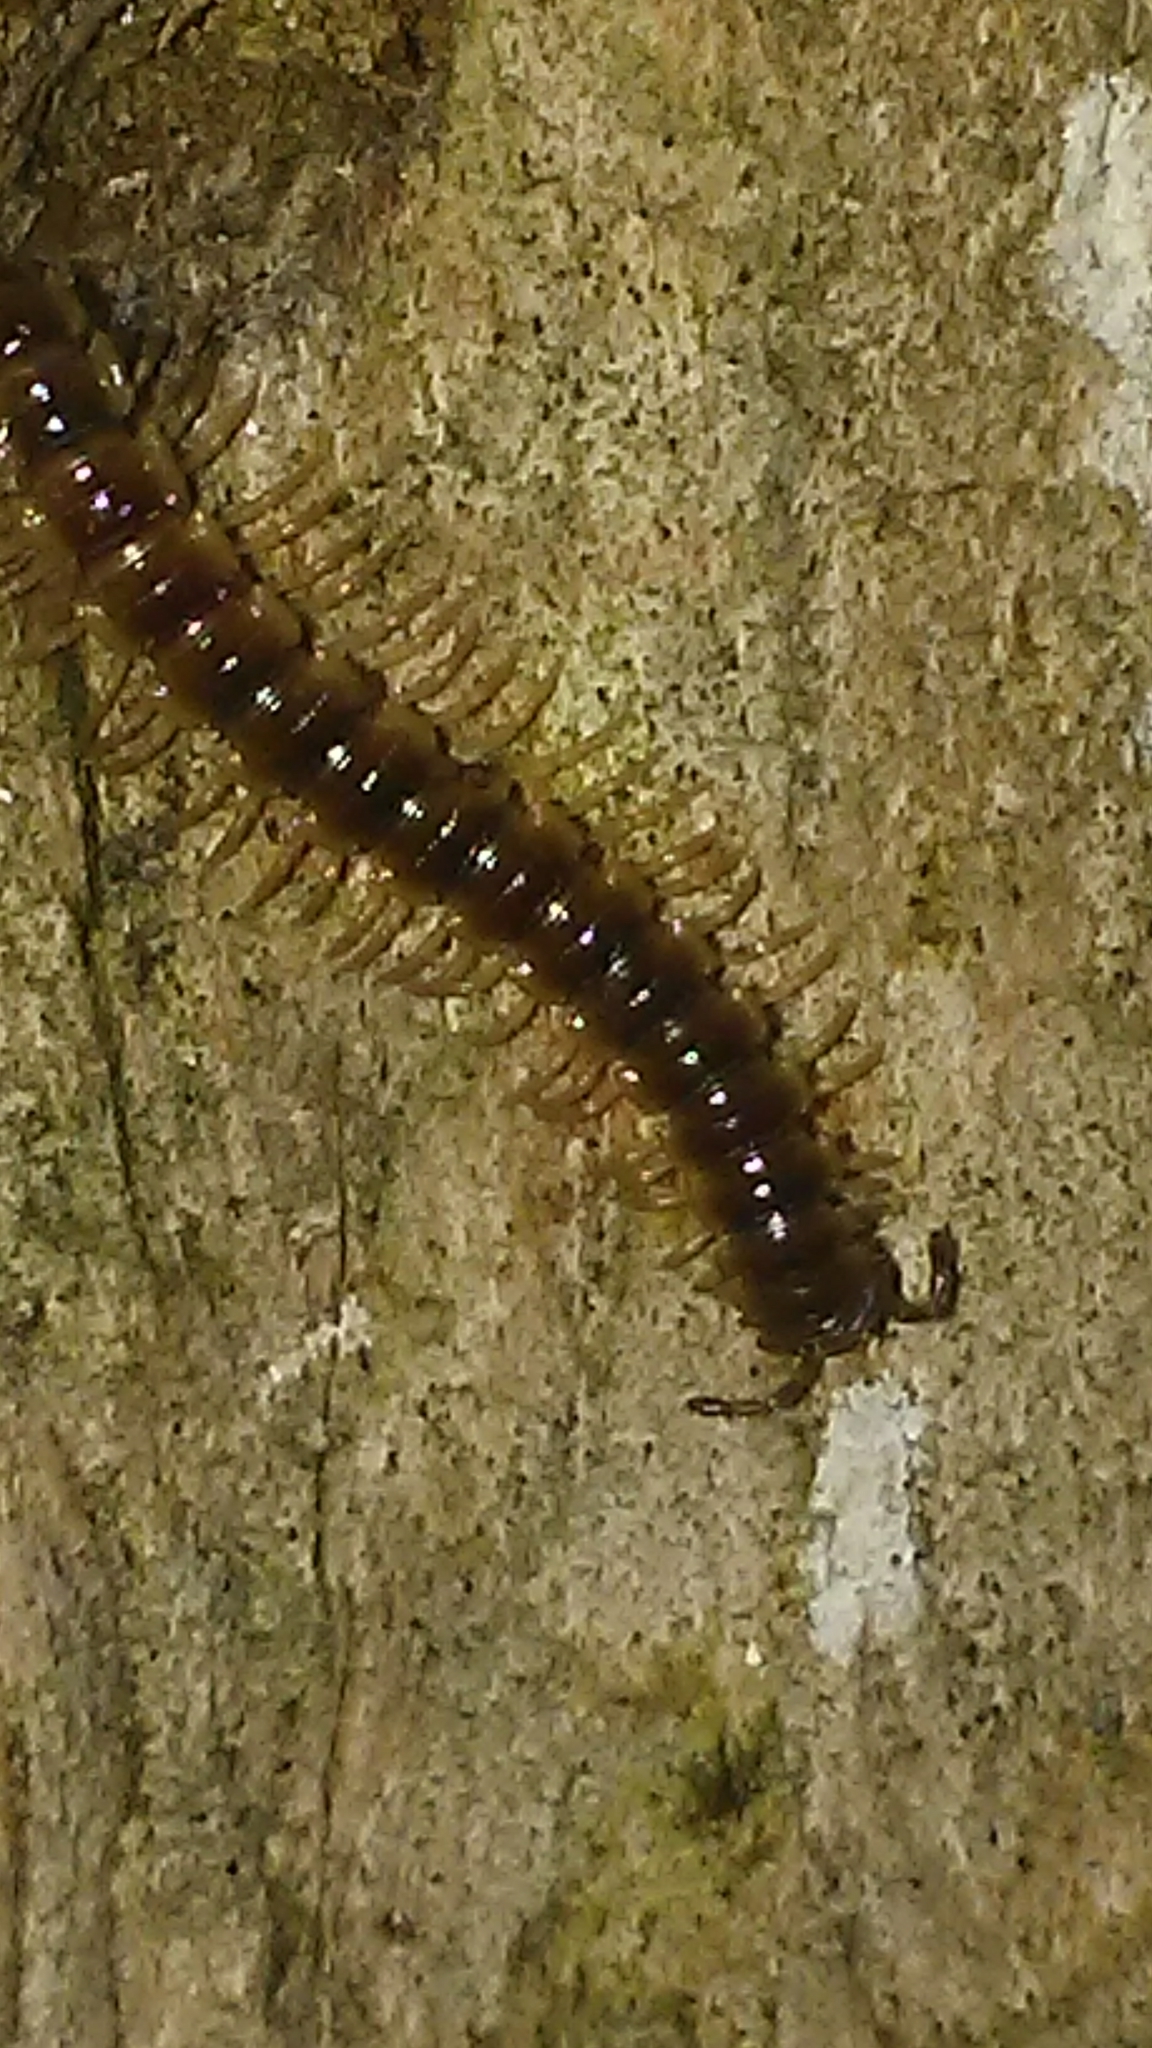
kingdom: Animalia
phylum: Arthropoda
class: Diplopoda
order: Polydesmida
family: Paradoxosomatidae
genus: Oxidus
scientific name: Oxidus gracilis
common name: Greenhouse millipede
